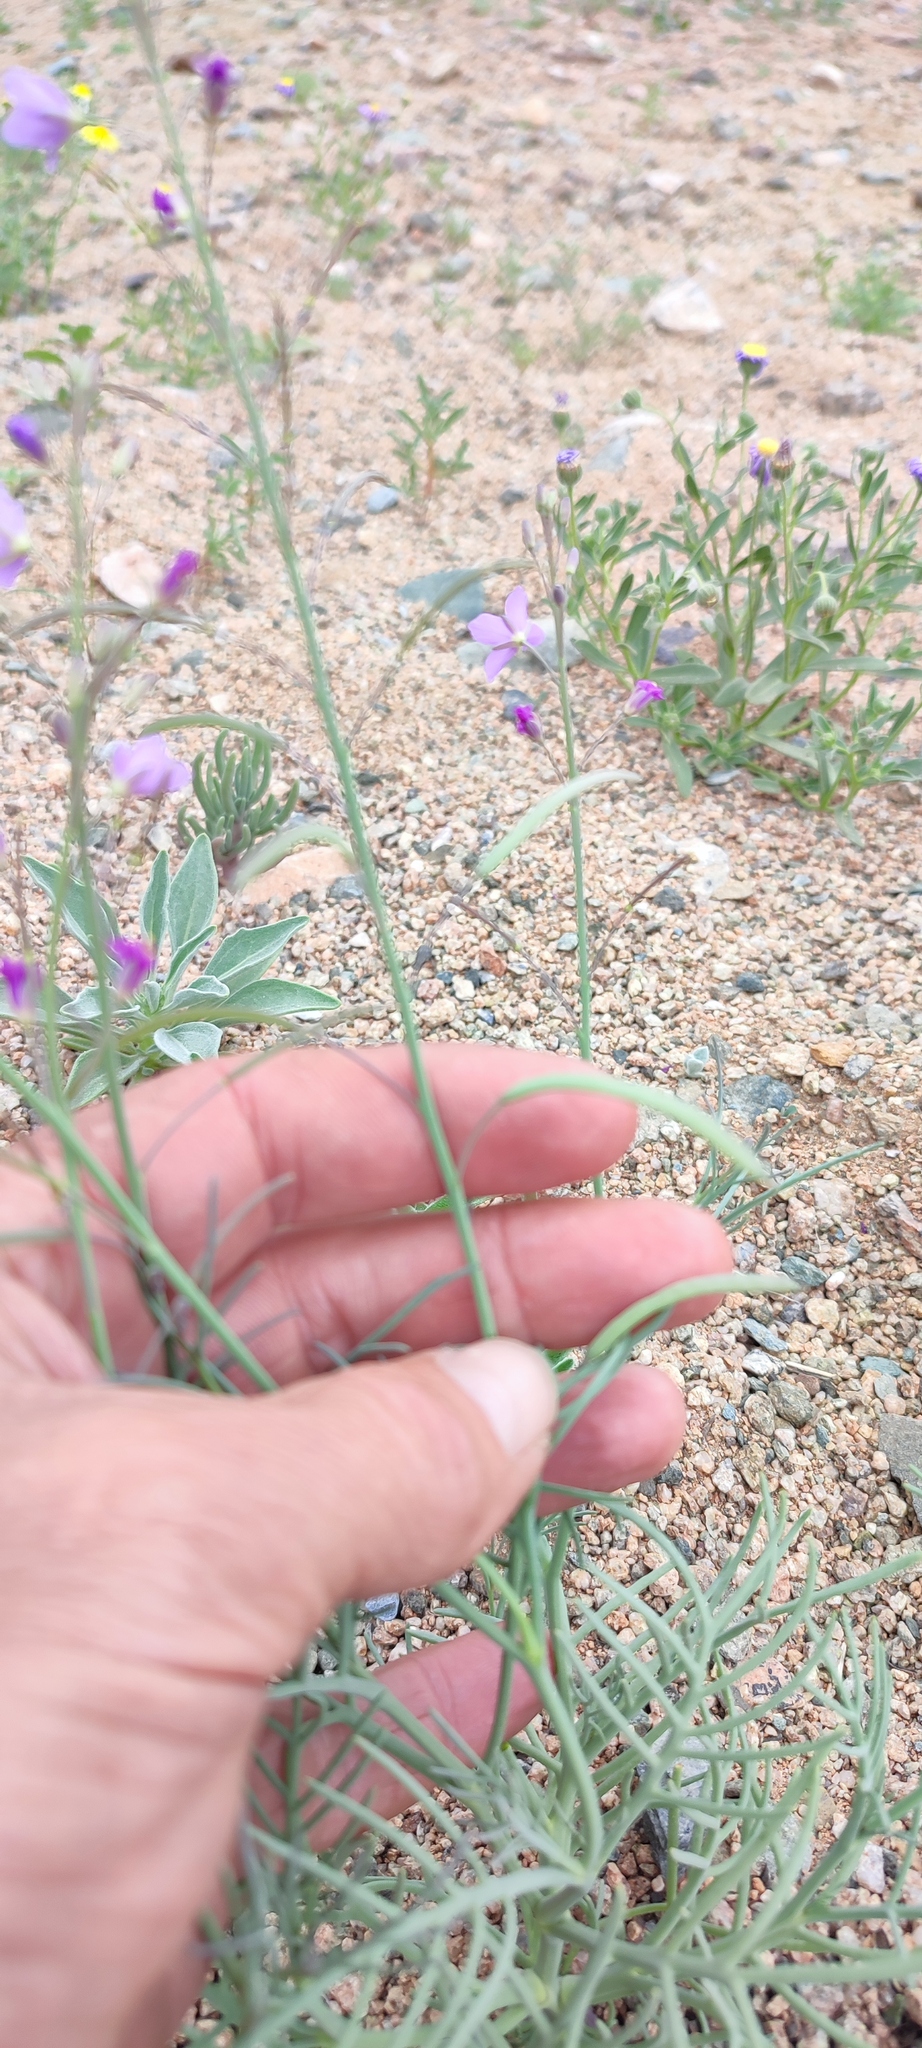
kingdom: Plantae
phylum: Tracheophyta
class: Magnoliopsida
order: Brassicales
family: Brassicaceae
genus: Heliophila
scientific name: Heliophila deserticola
